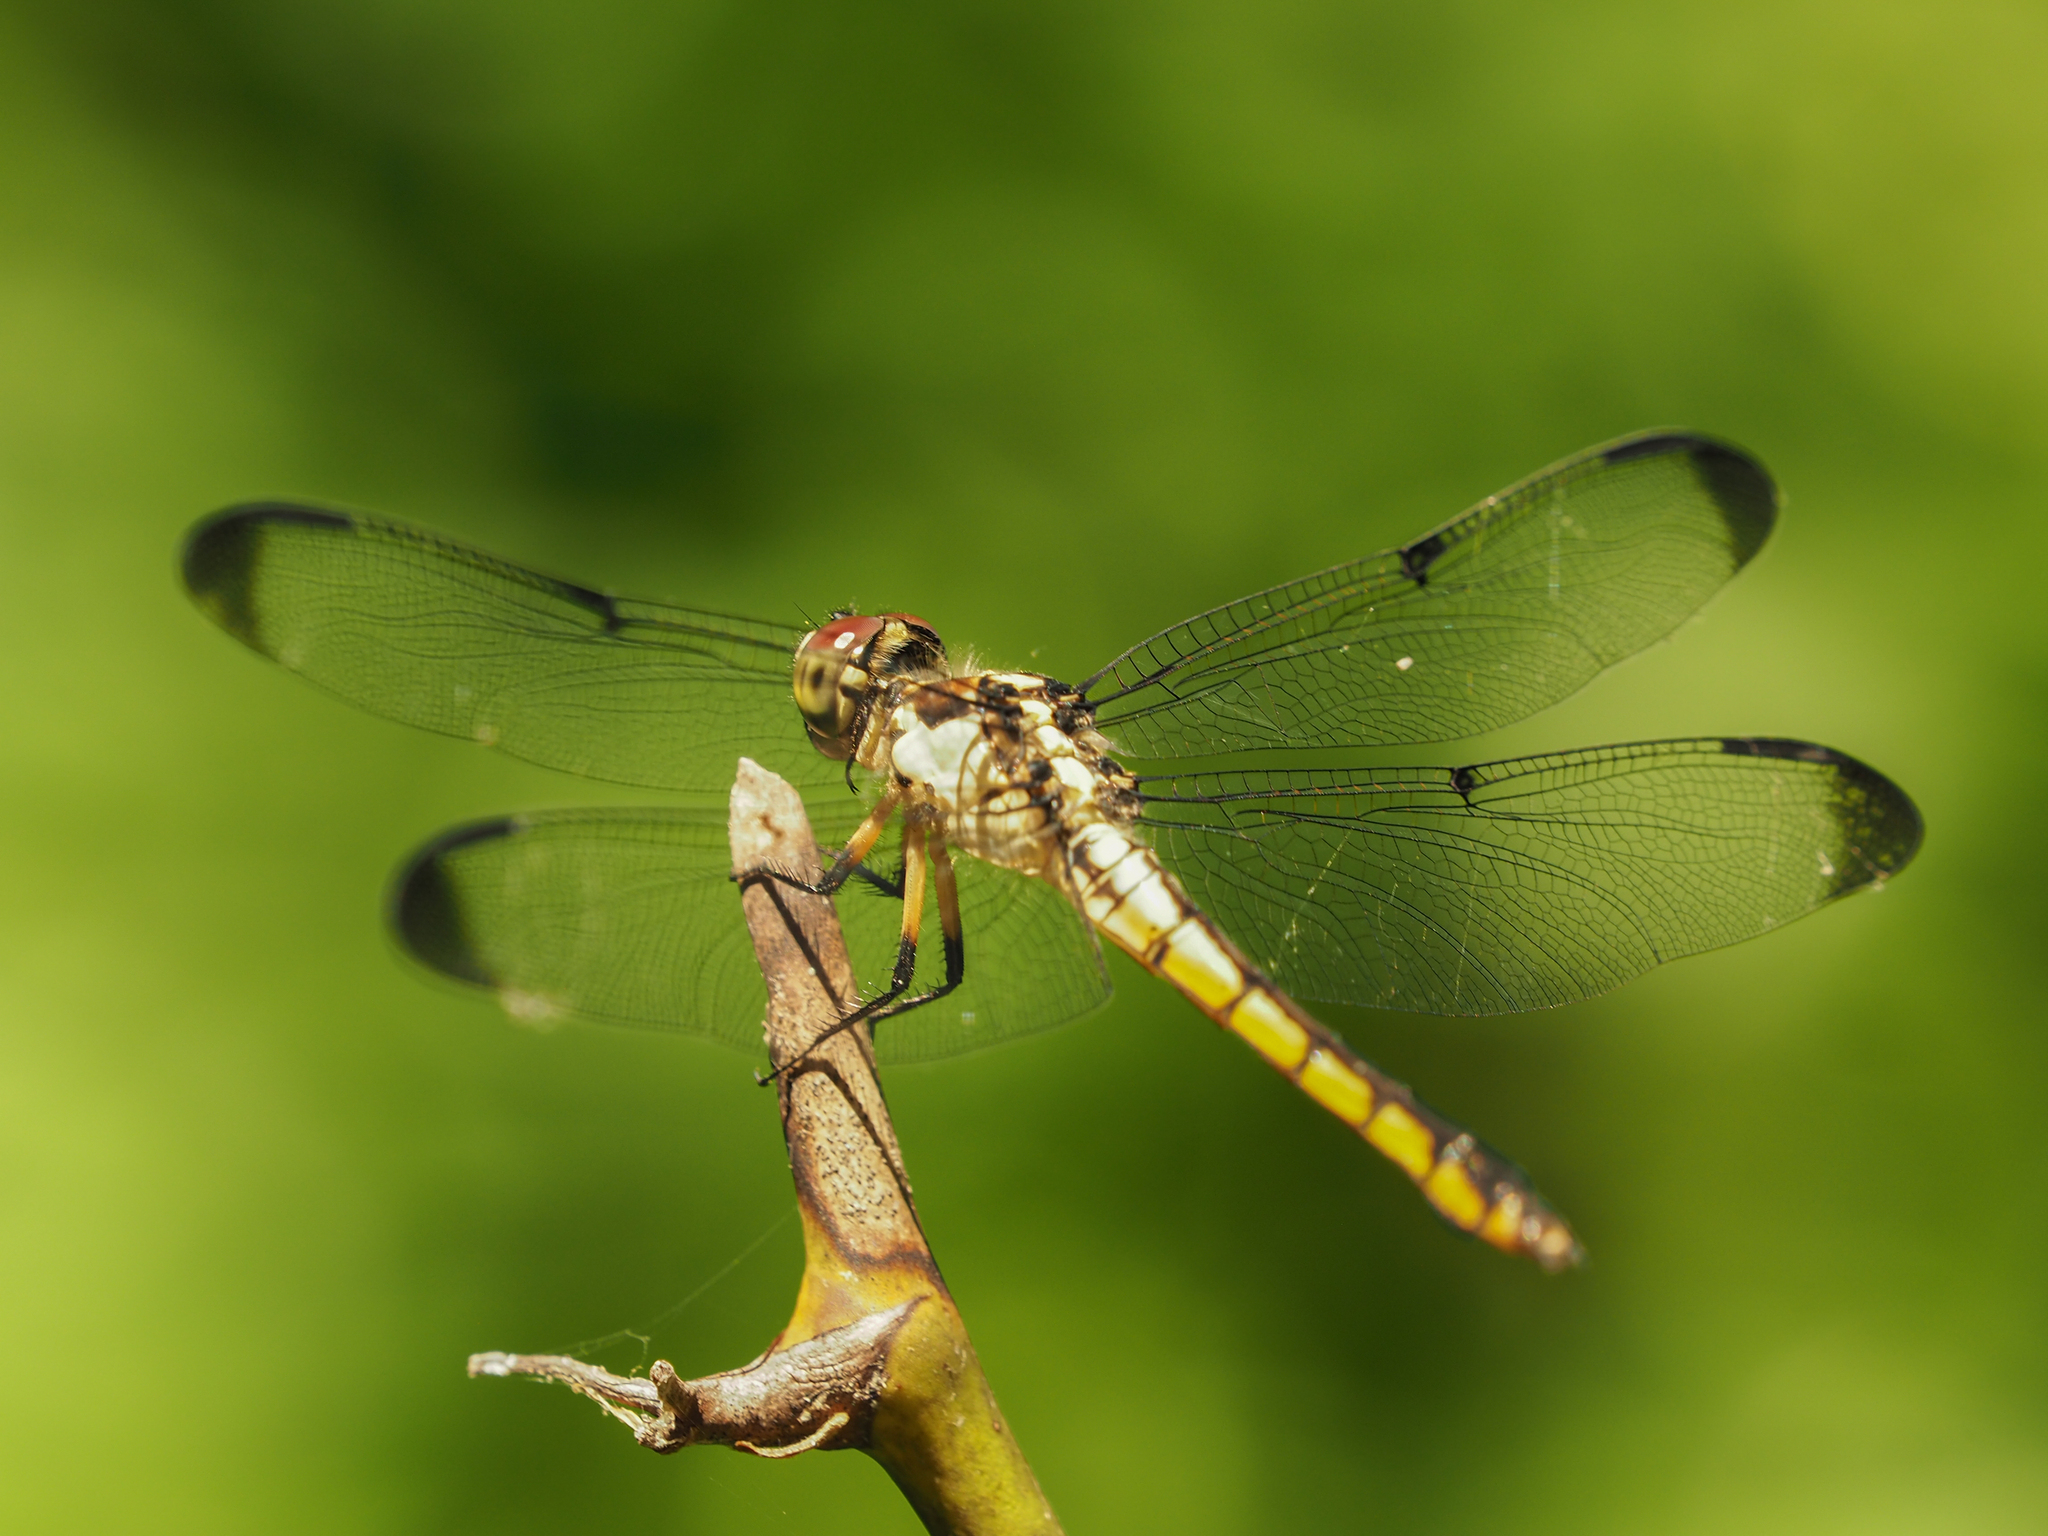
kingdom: Animalia
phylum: Arthropoda
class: Insecta
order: Odonata
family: Libellulidae
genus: Libellula
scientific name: Libellula vibrans
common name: Great blue skimmer
